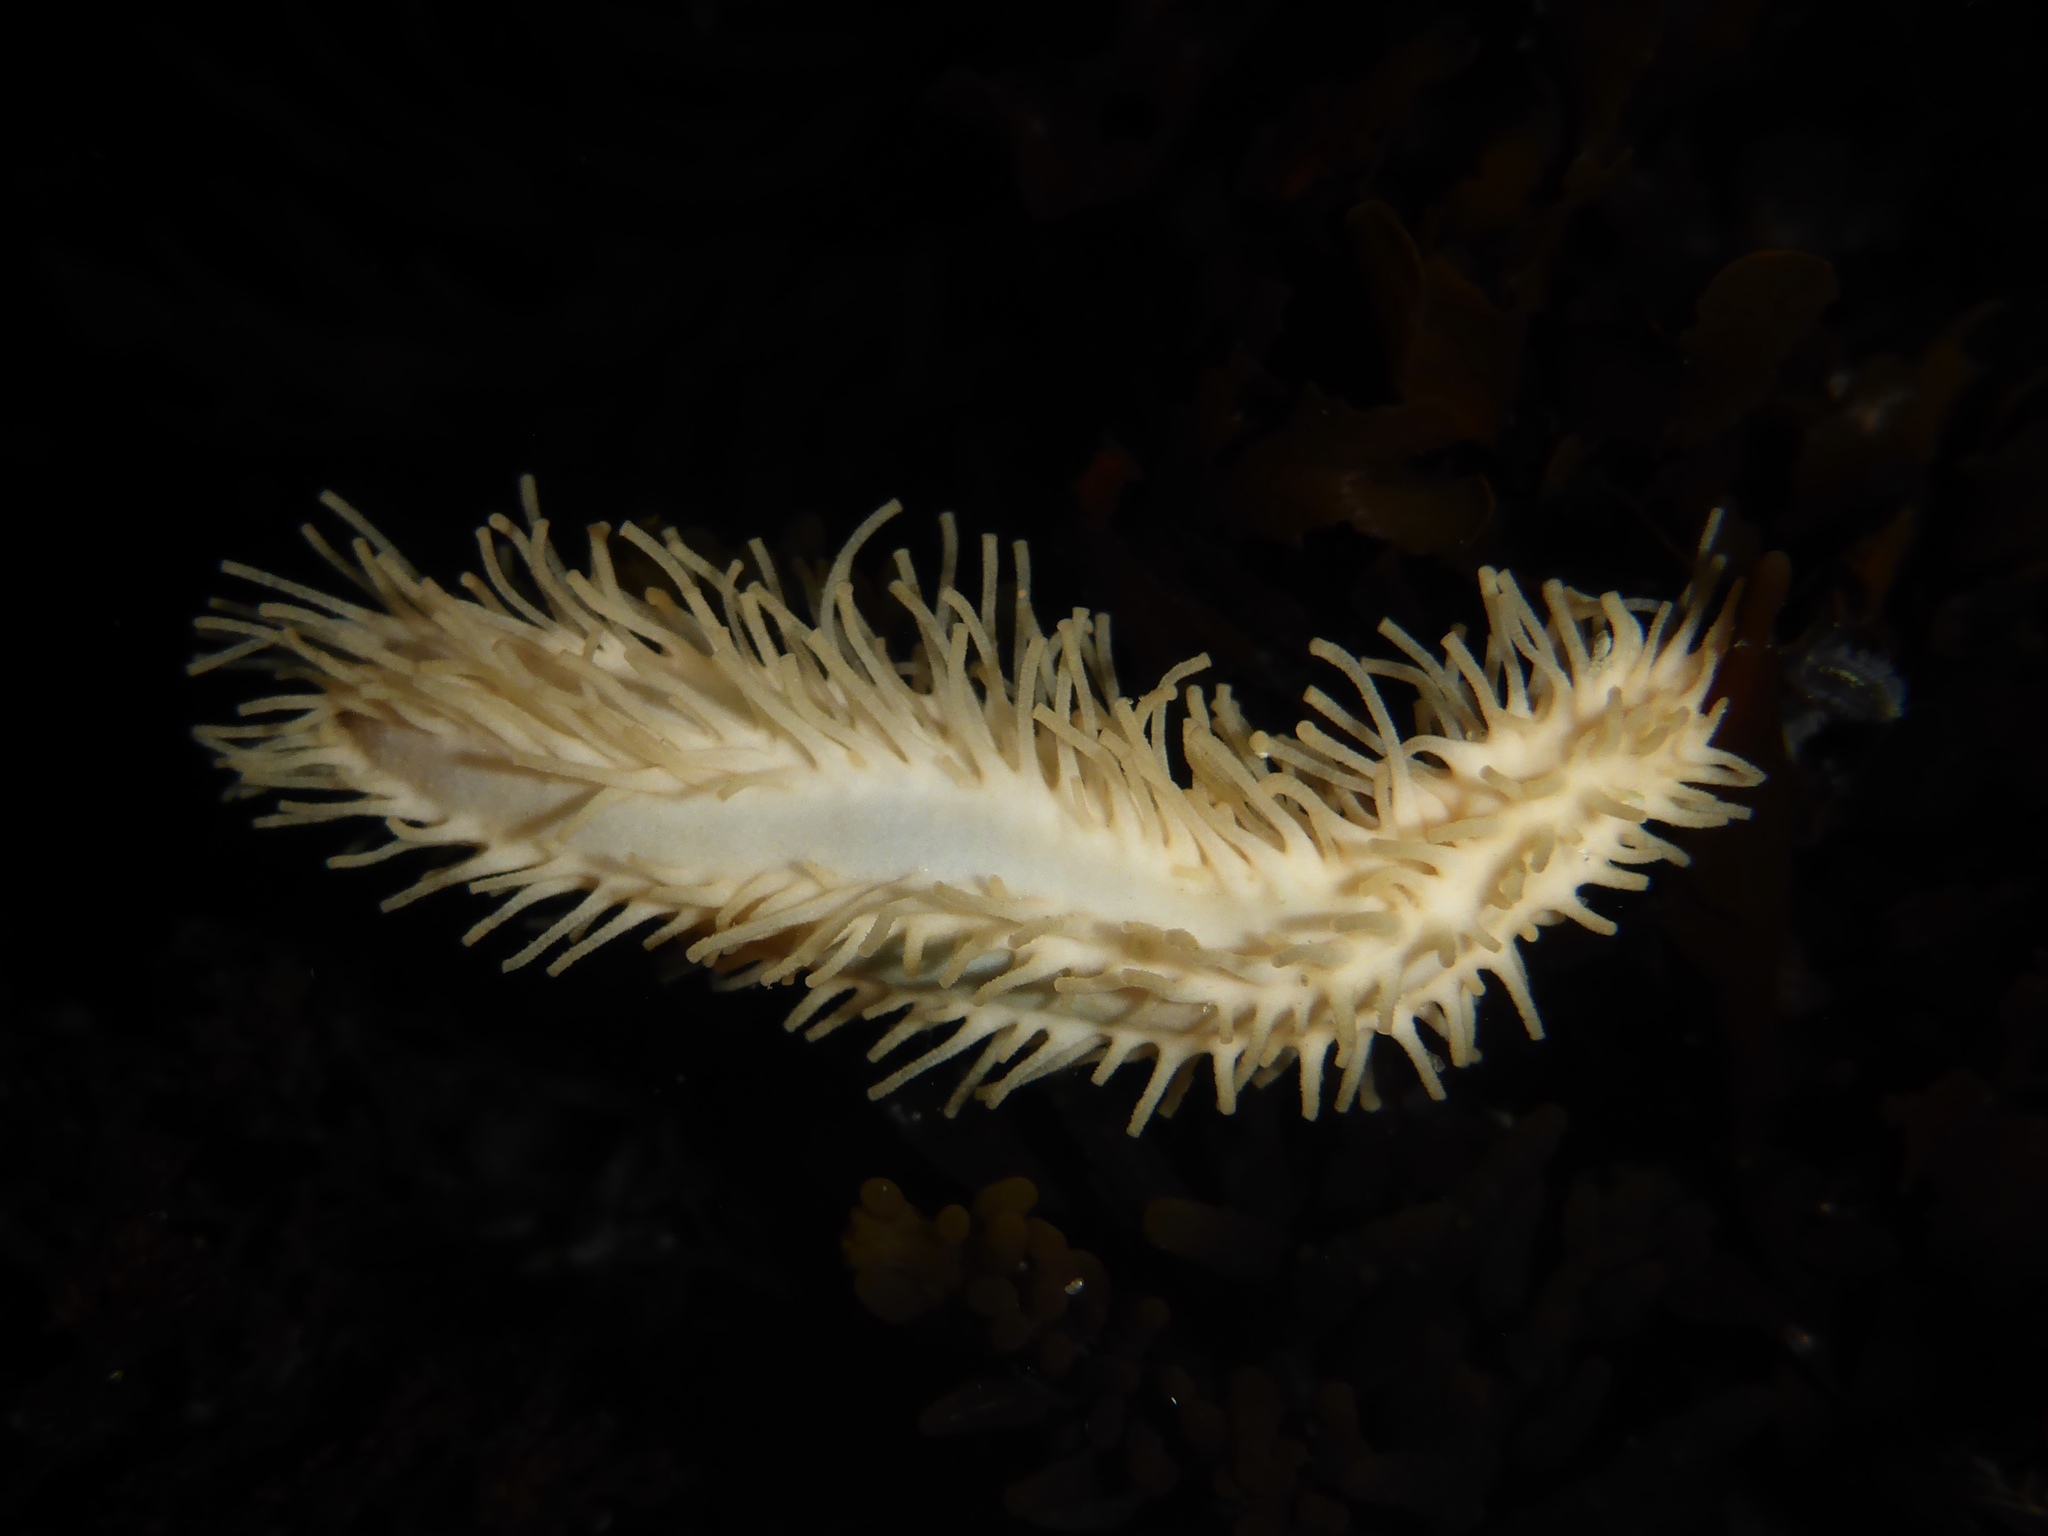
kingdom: Animalia
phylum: Echinodermata
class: Holothuroidea
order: Dendrochirotida
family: Sclerodactylidae
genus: Eupentacta
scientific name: Eupentacta quinquesemita
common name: Pentamerous sea cucumber
